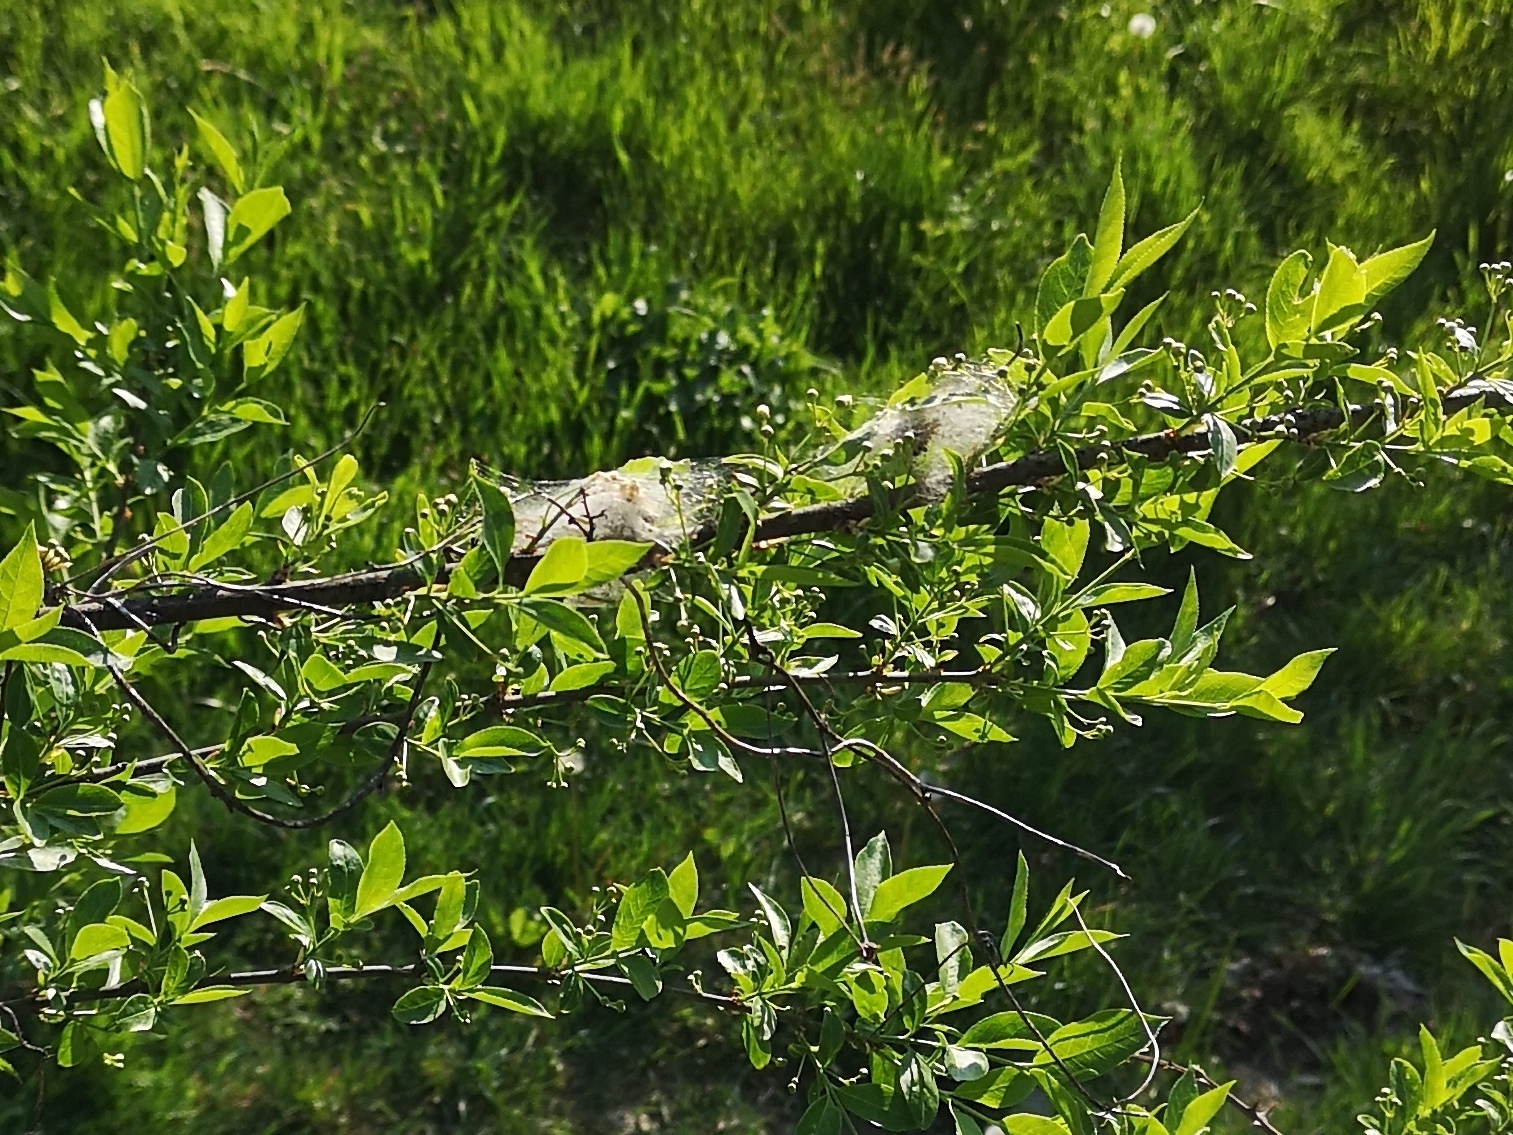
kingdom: Plantae
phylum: Tracheophyta
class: Magnoliopsida
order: Celastrales
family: Celastraceae
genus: Euonymus
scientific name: Euonymus europaeus
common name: Spindle
